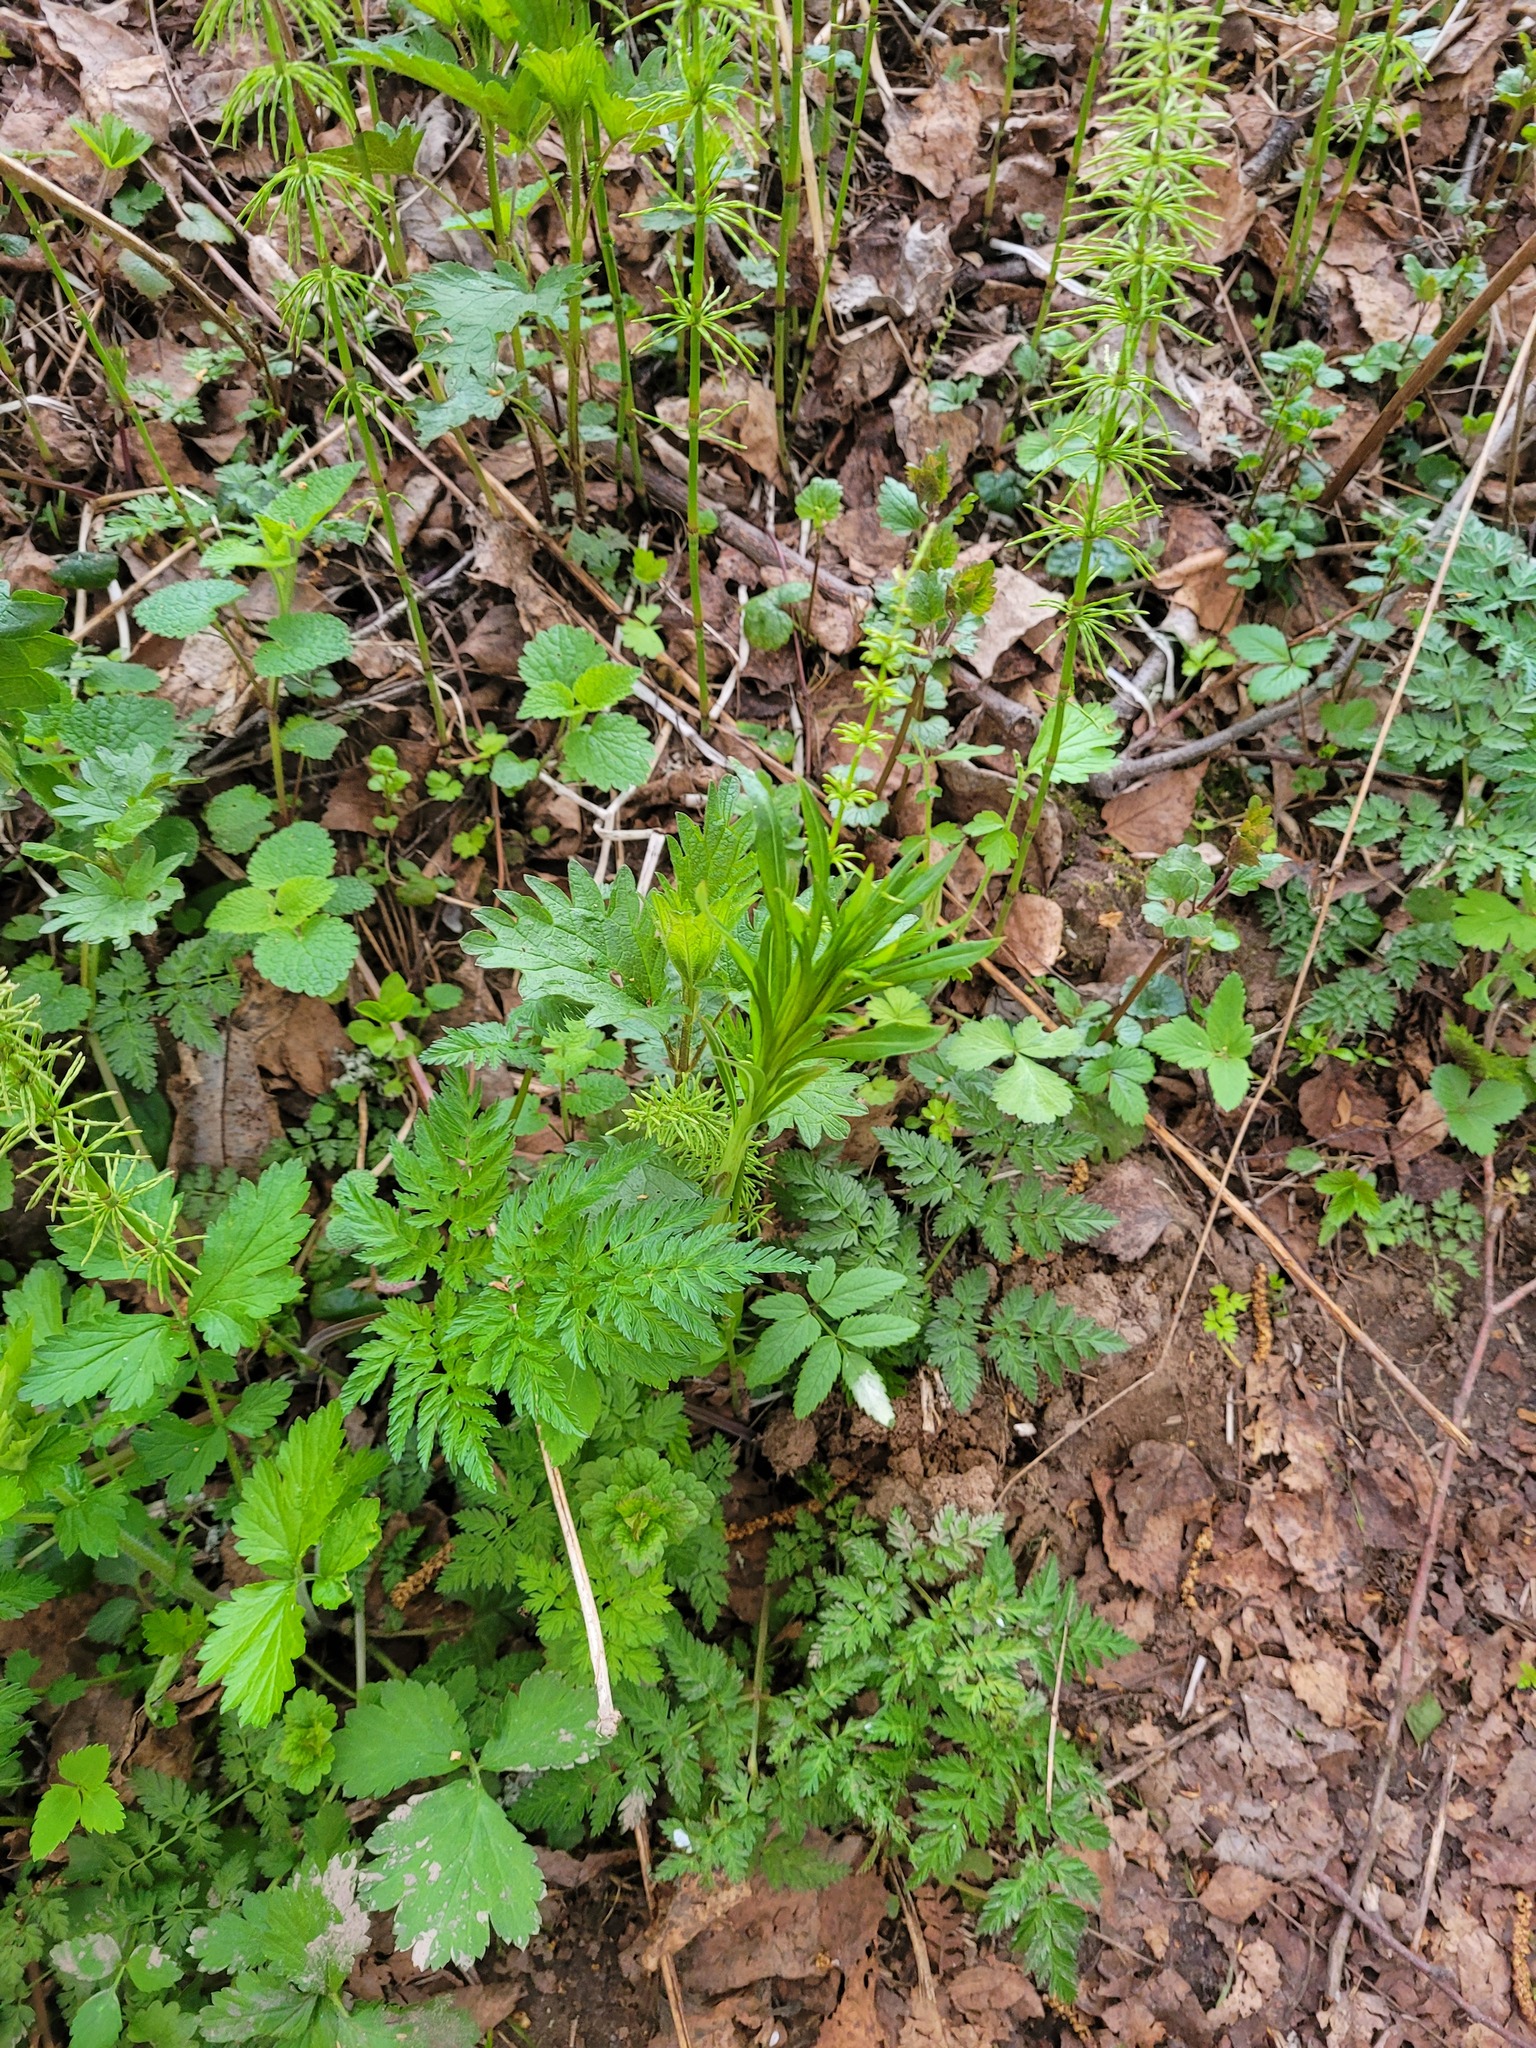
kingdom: Plantae
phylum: Tracheophyta
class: Magnoliopsida
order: Myrtales
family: Onagraceae
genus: Chamaenerion
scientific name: Chamaenerion angustifolium
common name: Fireweed
